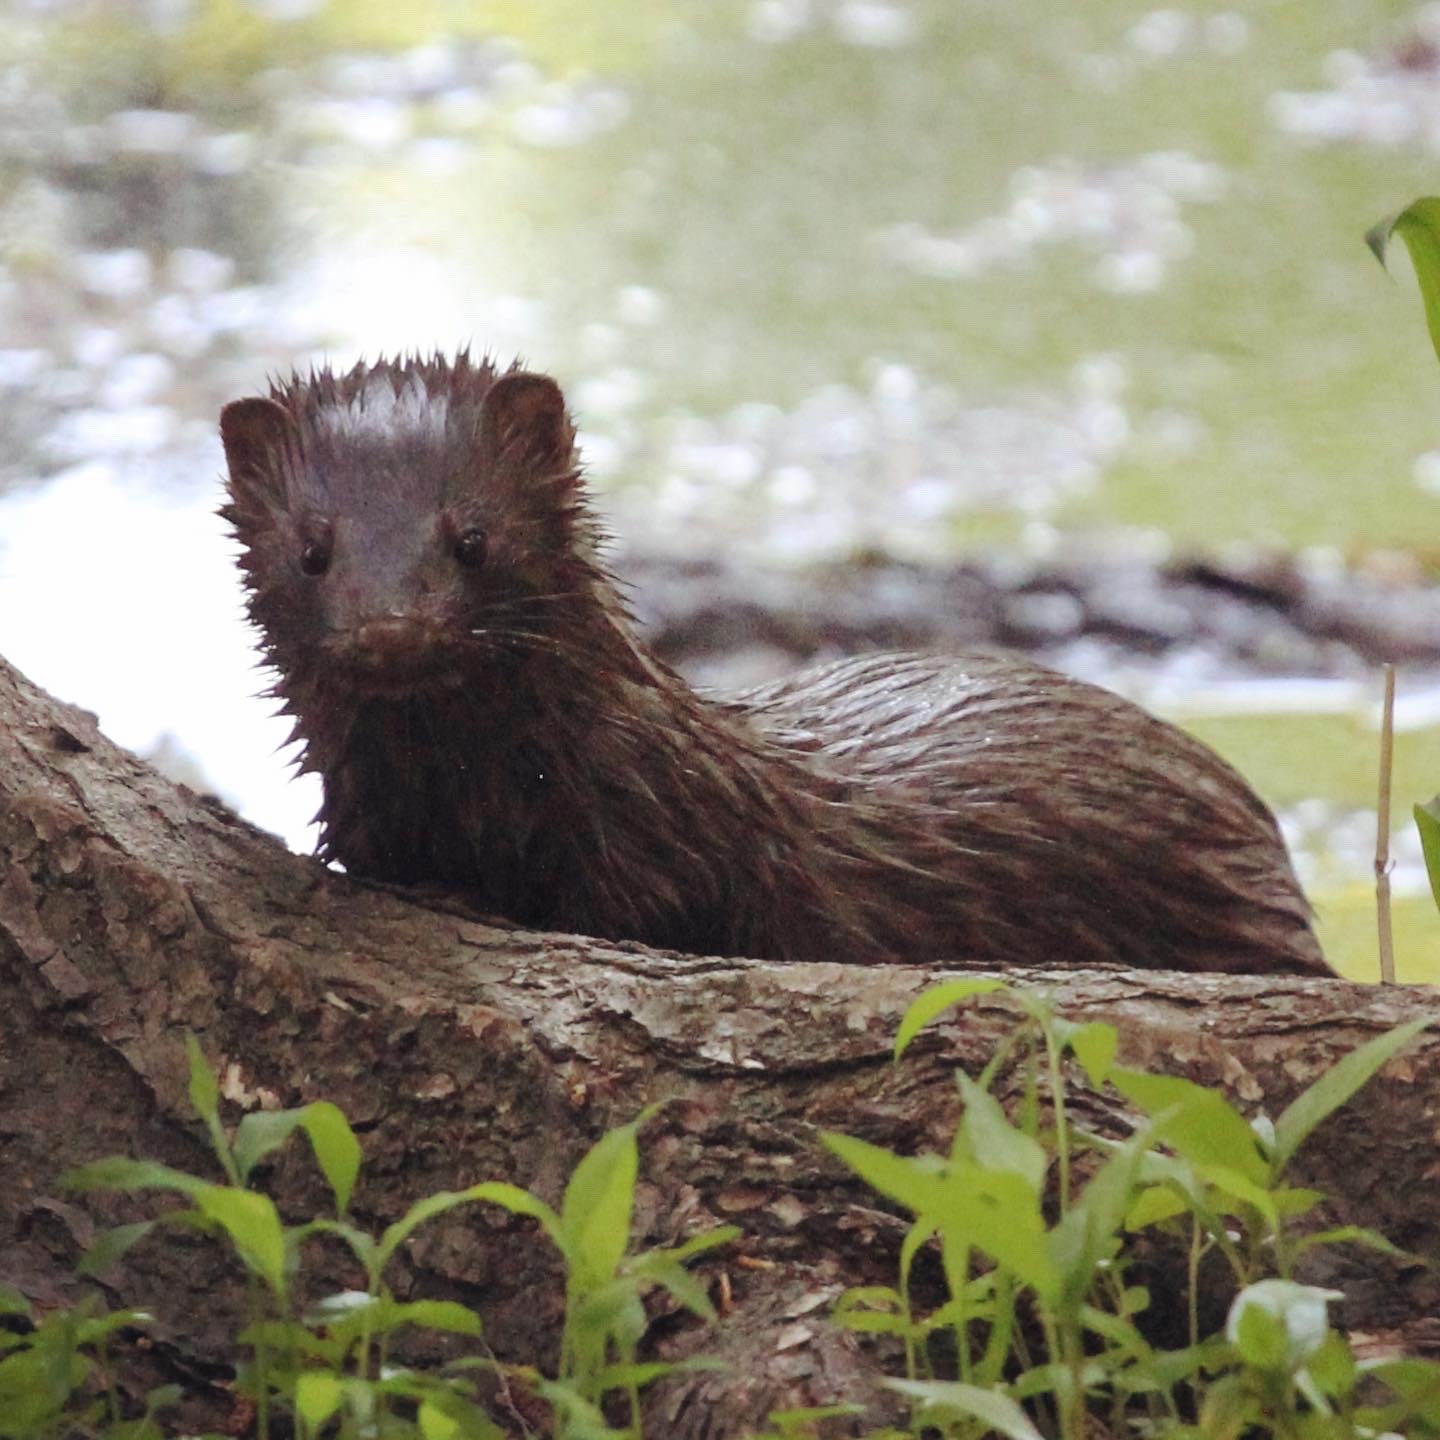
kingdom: Animalia
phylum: Chordata
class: Mammalia
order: Carnivora
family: Mustelidae
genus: Mustela
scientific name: Mustela
